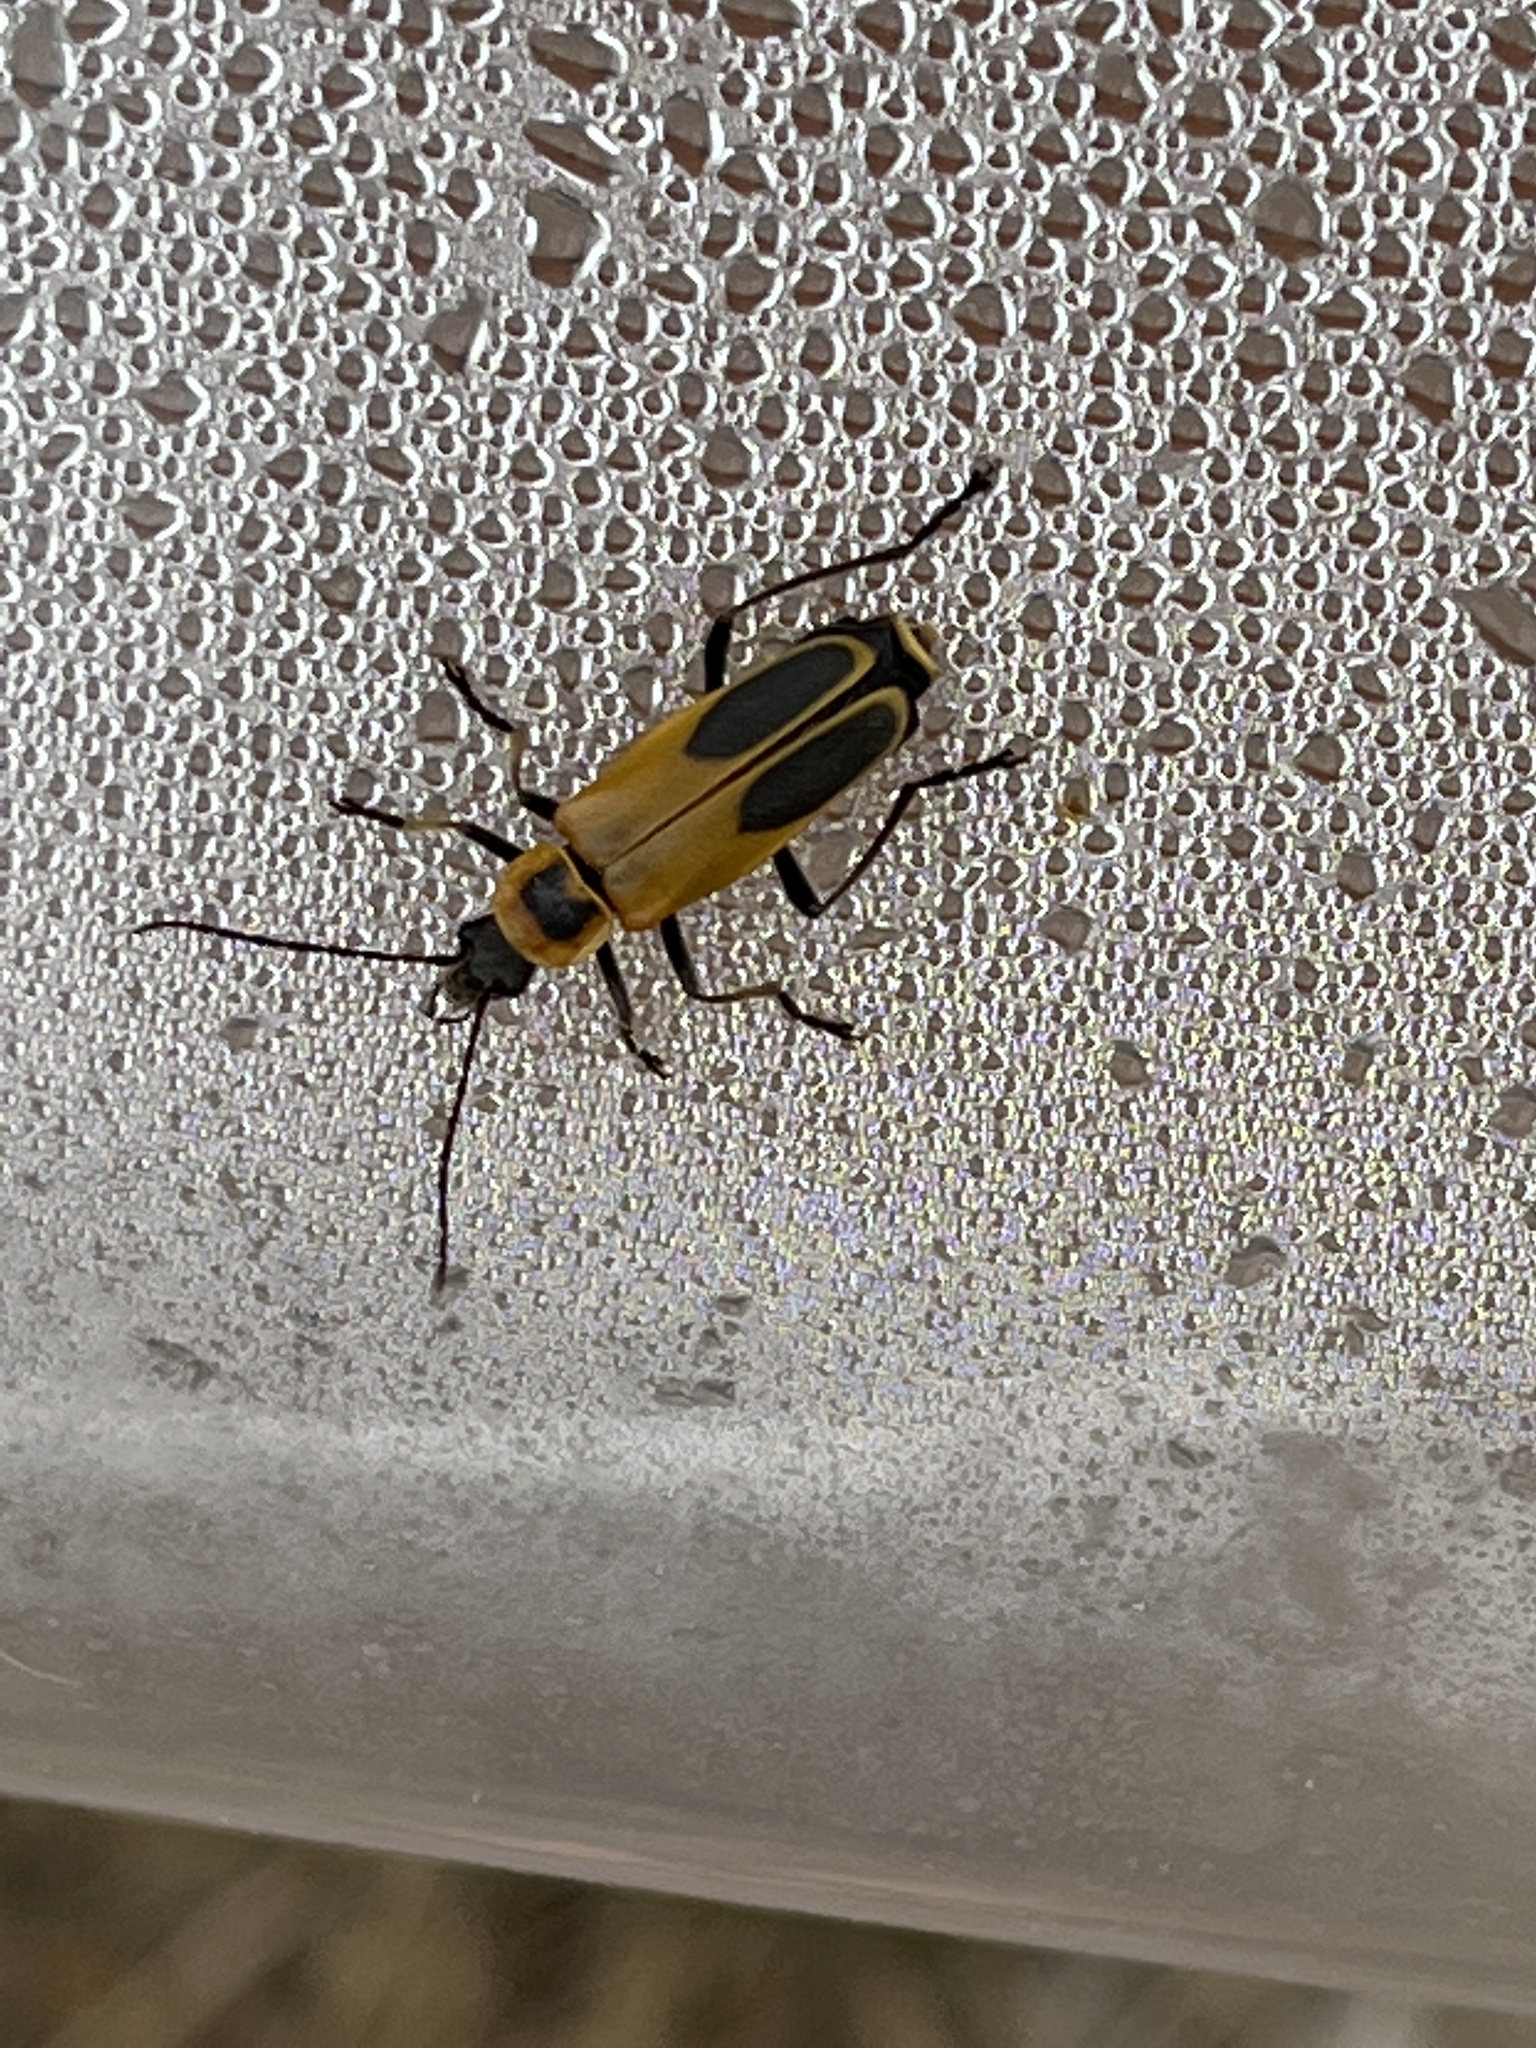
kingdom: Animalia
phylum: Arthropoda
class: Insecta
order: Coleoptera
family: Cantharidae
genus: Chauliognathus
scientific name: Chauliognathus pensylvanicus
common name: Goldenrod soldier beetle
